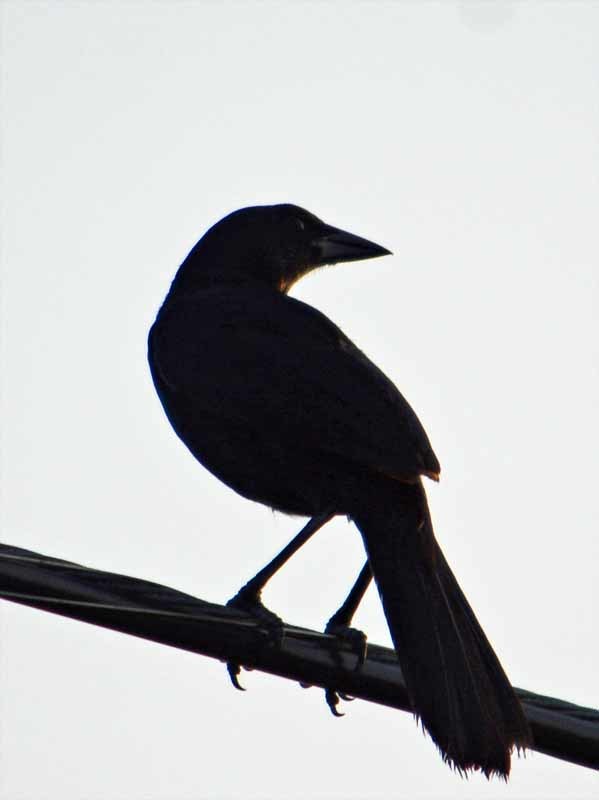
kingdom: Animalia
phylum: Chordata
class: Aves
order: Passeriformes
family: Icteridae
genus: Dives
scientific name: Dives dives
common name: Melodious blackbird
